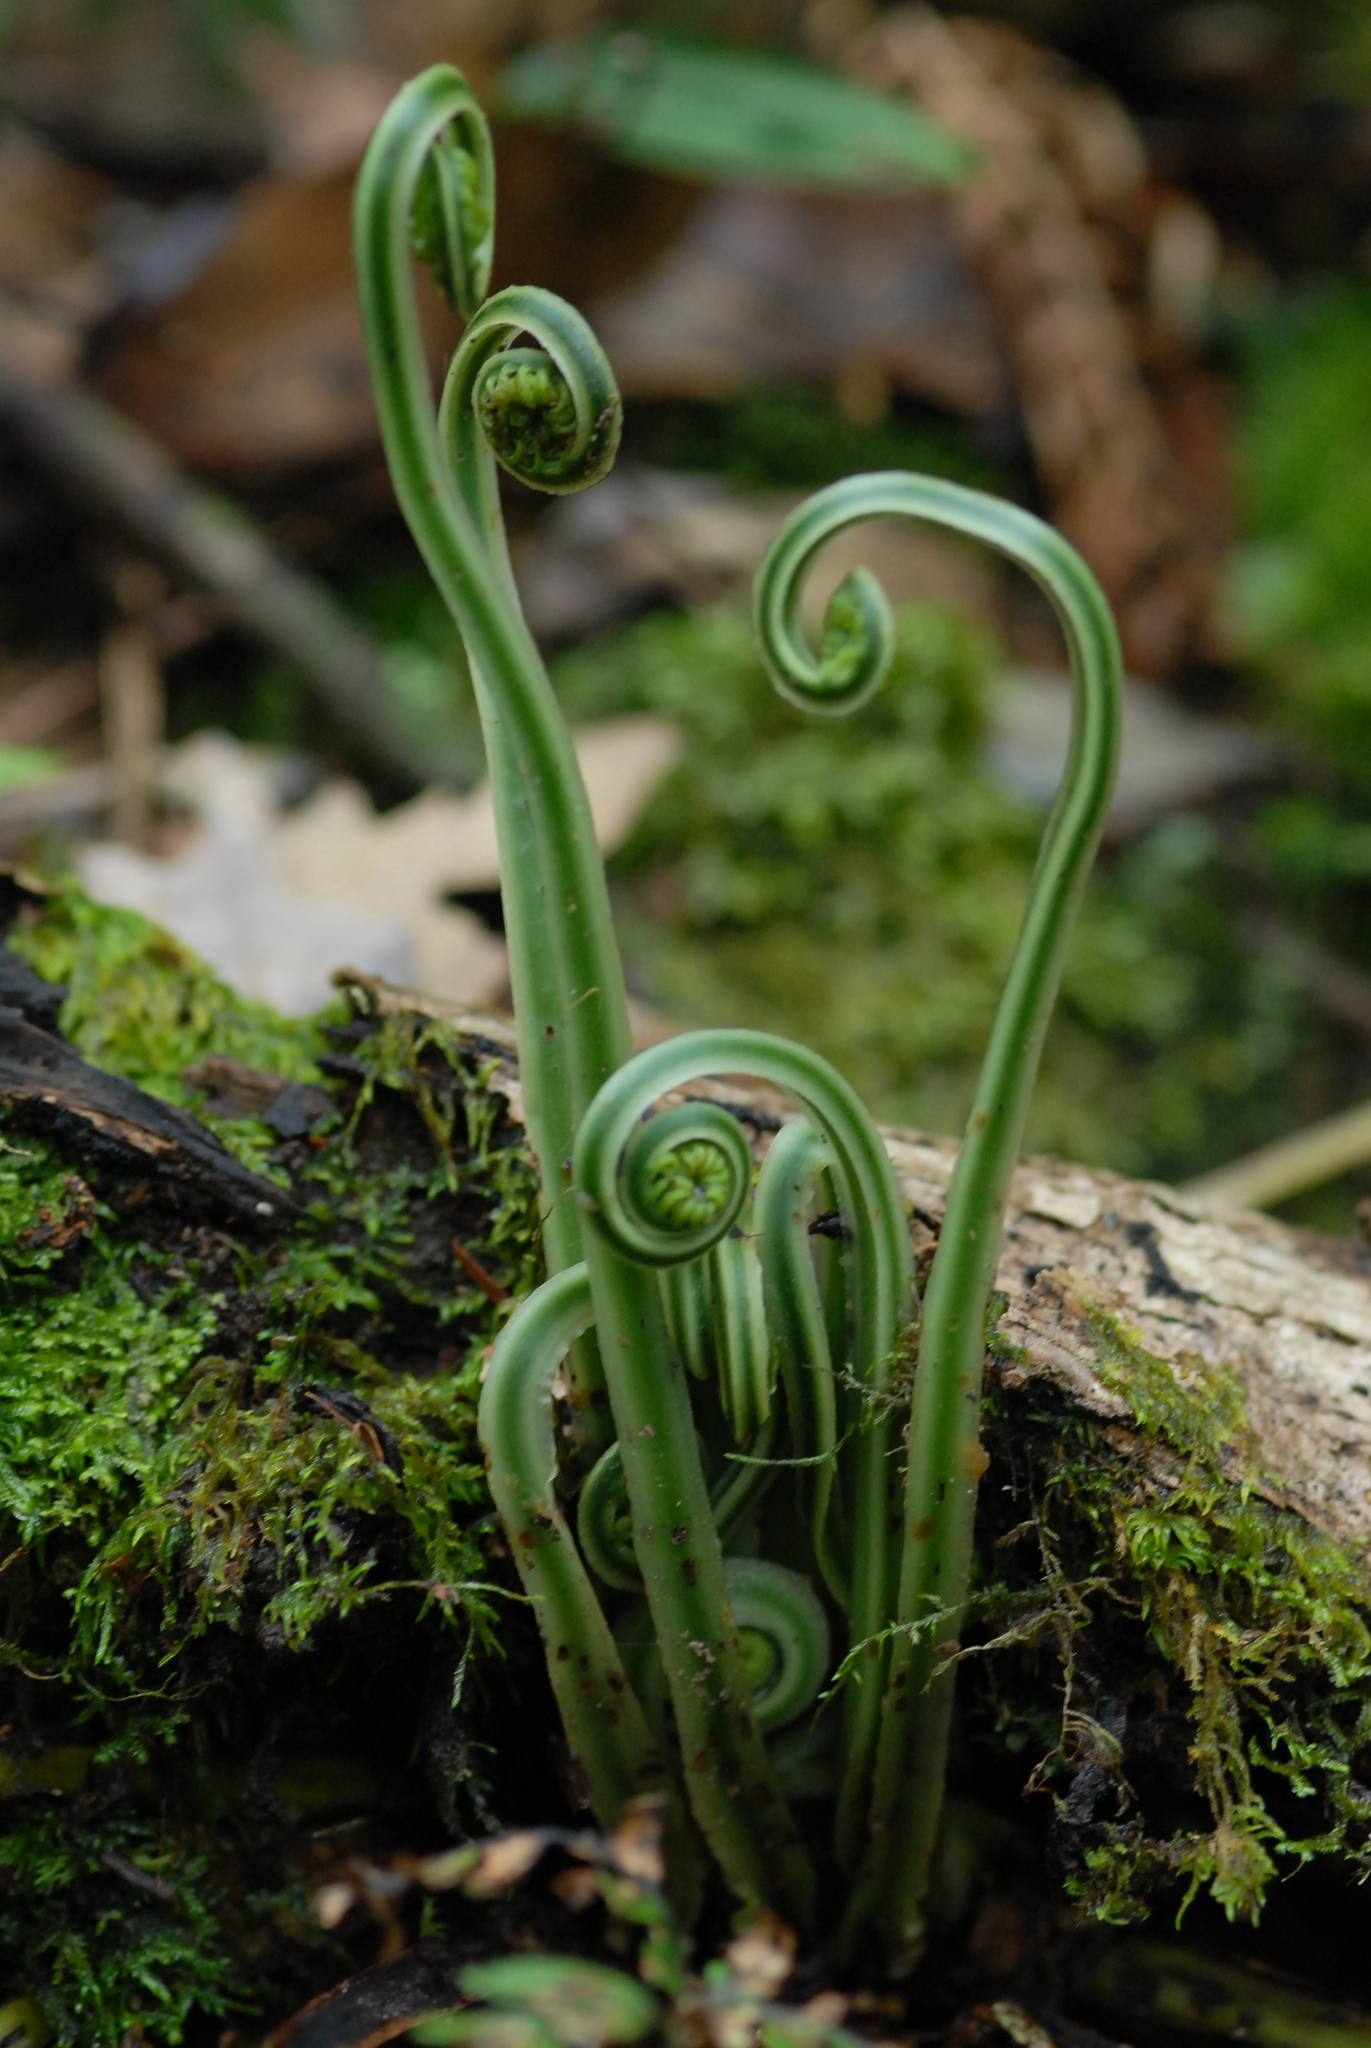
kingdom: Plantae
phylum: Tracheophyta
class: Polypodiopsida
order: Cyatheales
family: Plagiogyriaceae
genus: Plagiogyria
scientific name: Plagiogyria falcata
